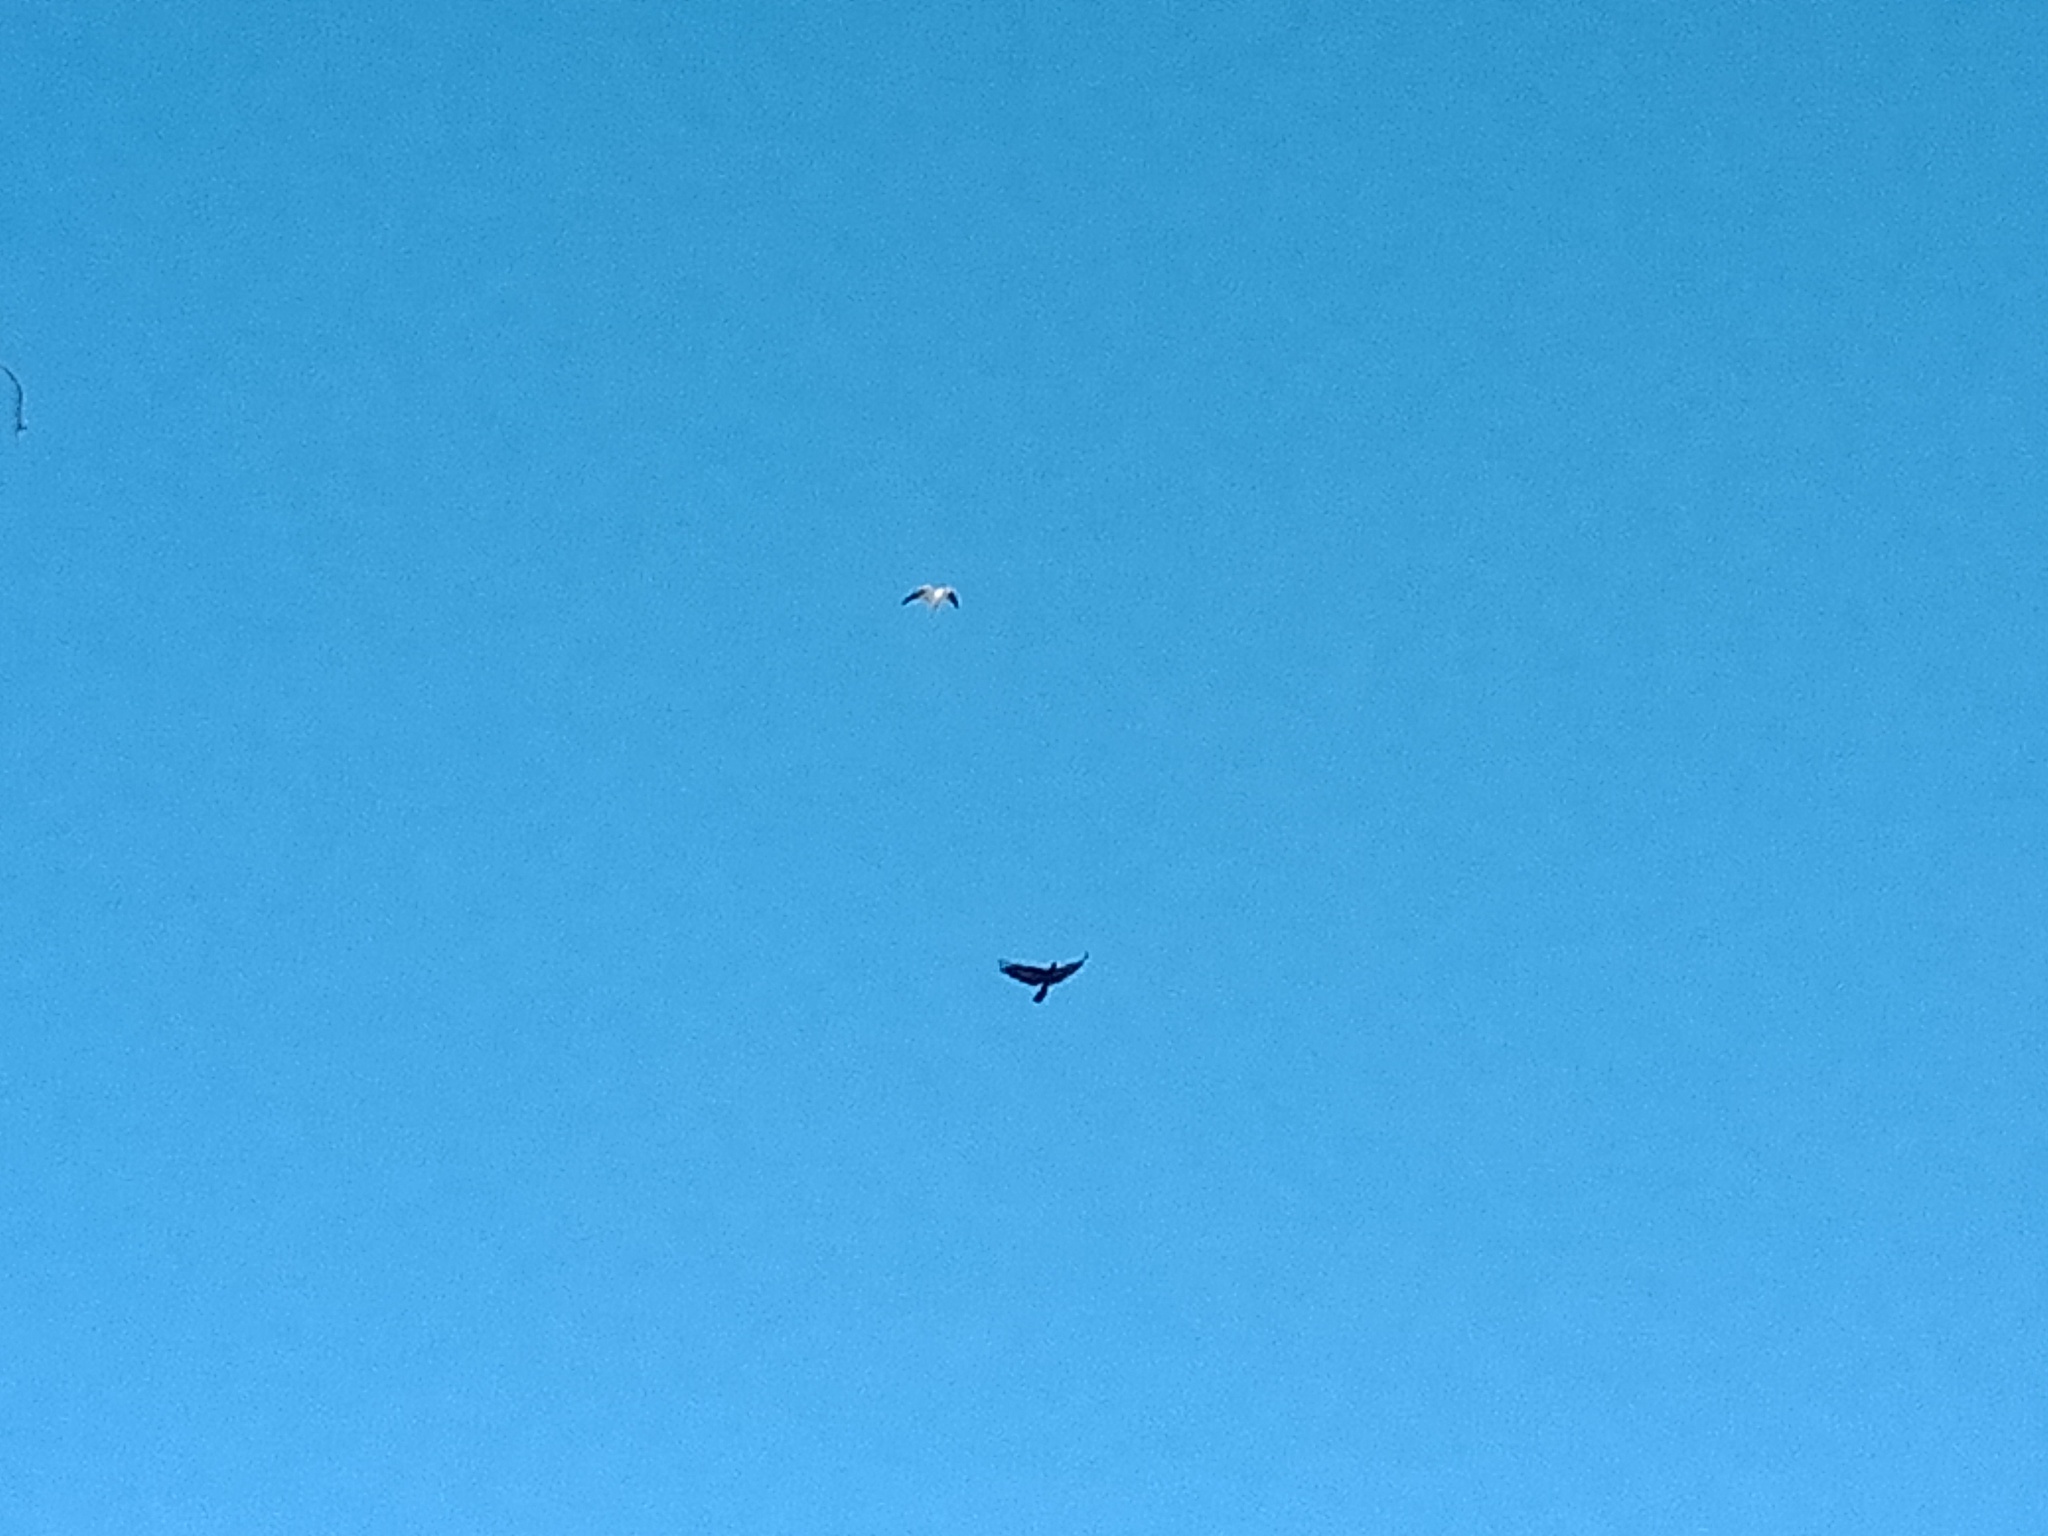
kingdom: Animalia
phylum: Chordata
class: Aves
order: Accipitriformes
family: Accipitridae
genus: Elanus
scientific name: Elanus axillaris
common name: Black-shouldered kite
